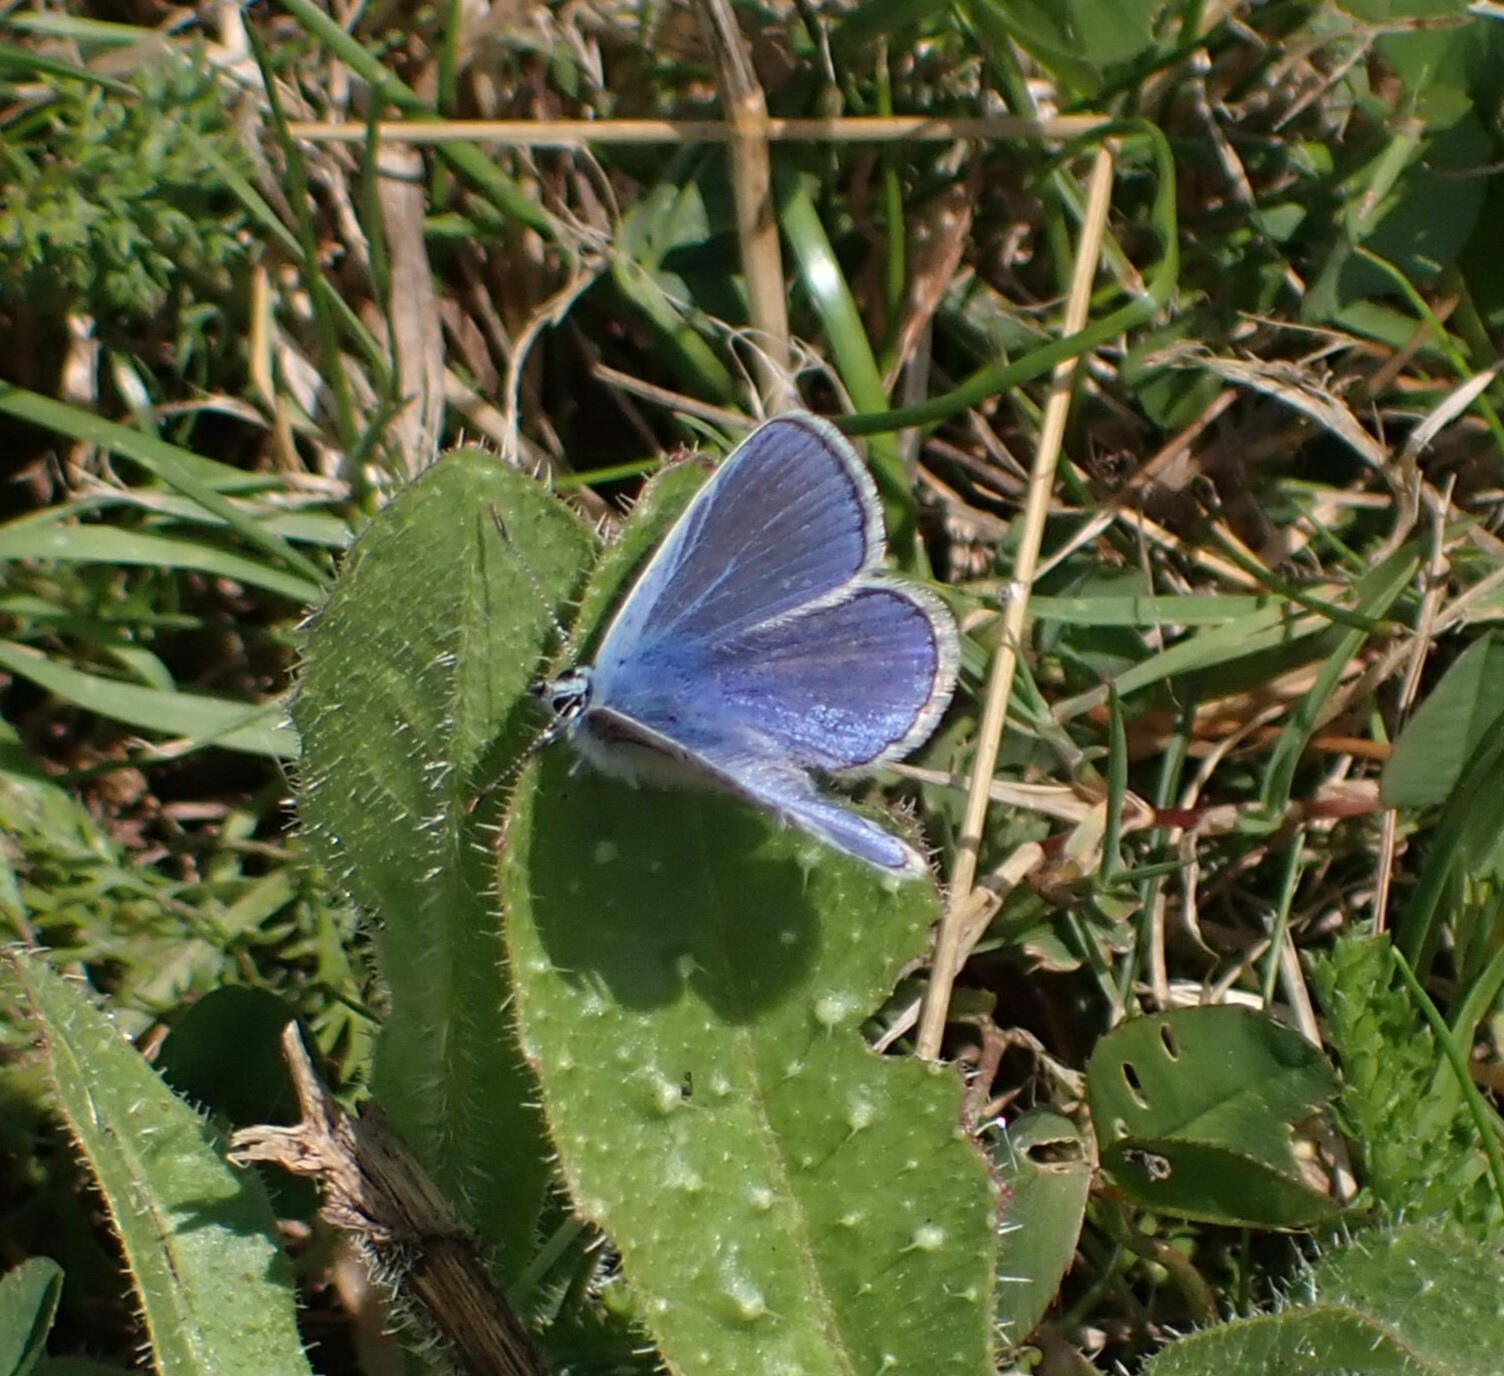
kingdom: Animalia
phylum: Arthropoda
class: Insecta
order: Lepidoptera
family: Lycaenidae
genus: Polyommatus
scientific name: Polyommatus icarus
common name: Common blue
